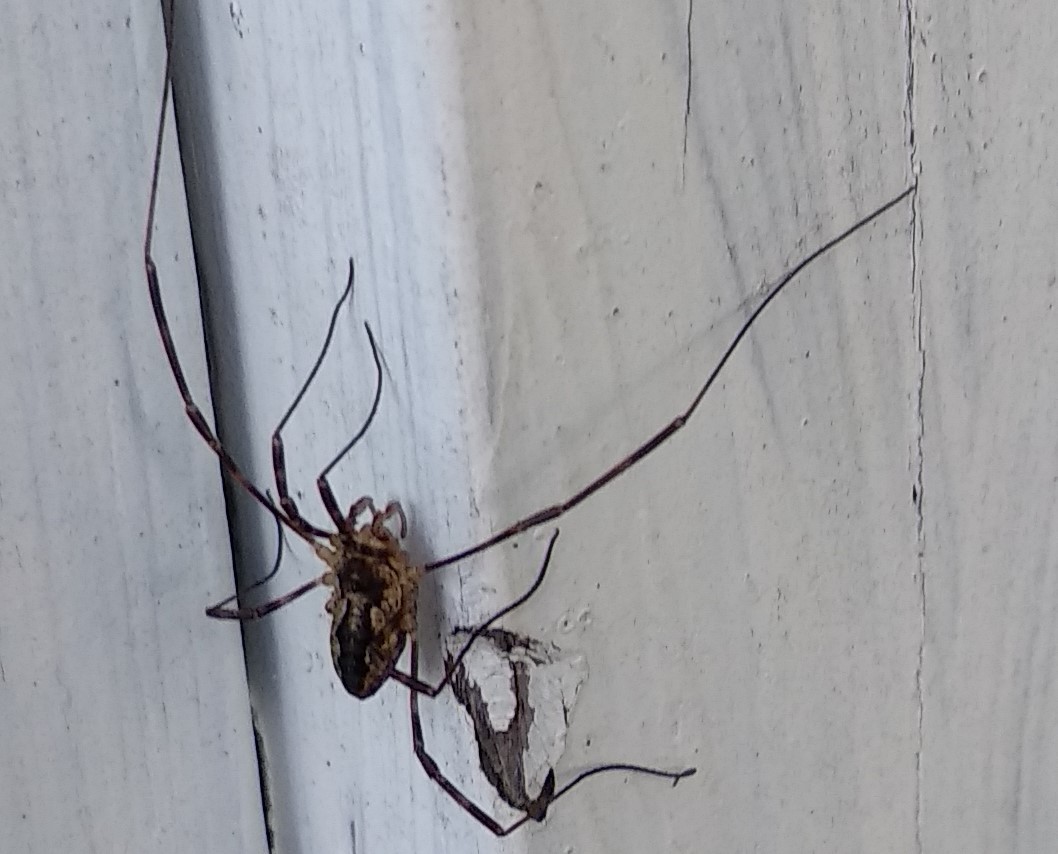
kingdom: Animalia
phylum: Arthropoda
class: Arachnida
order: Opiliones
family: Phalangiidae
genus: Odiellus
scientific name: Odiellus pictus
